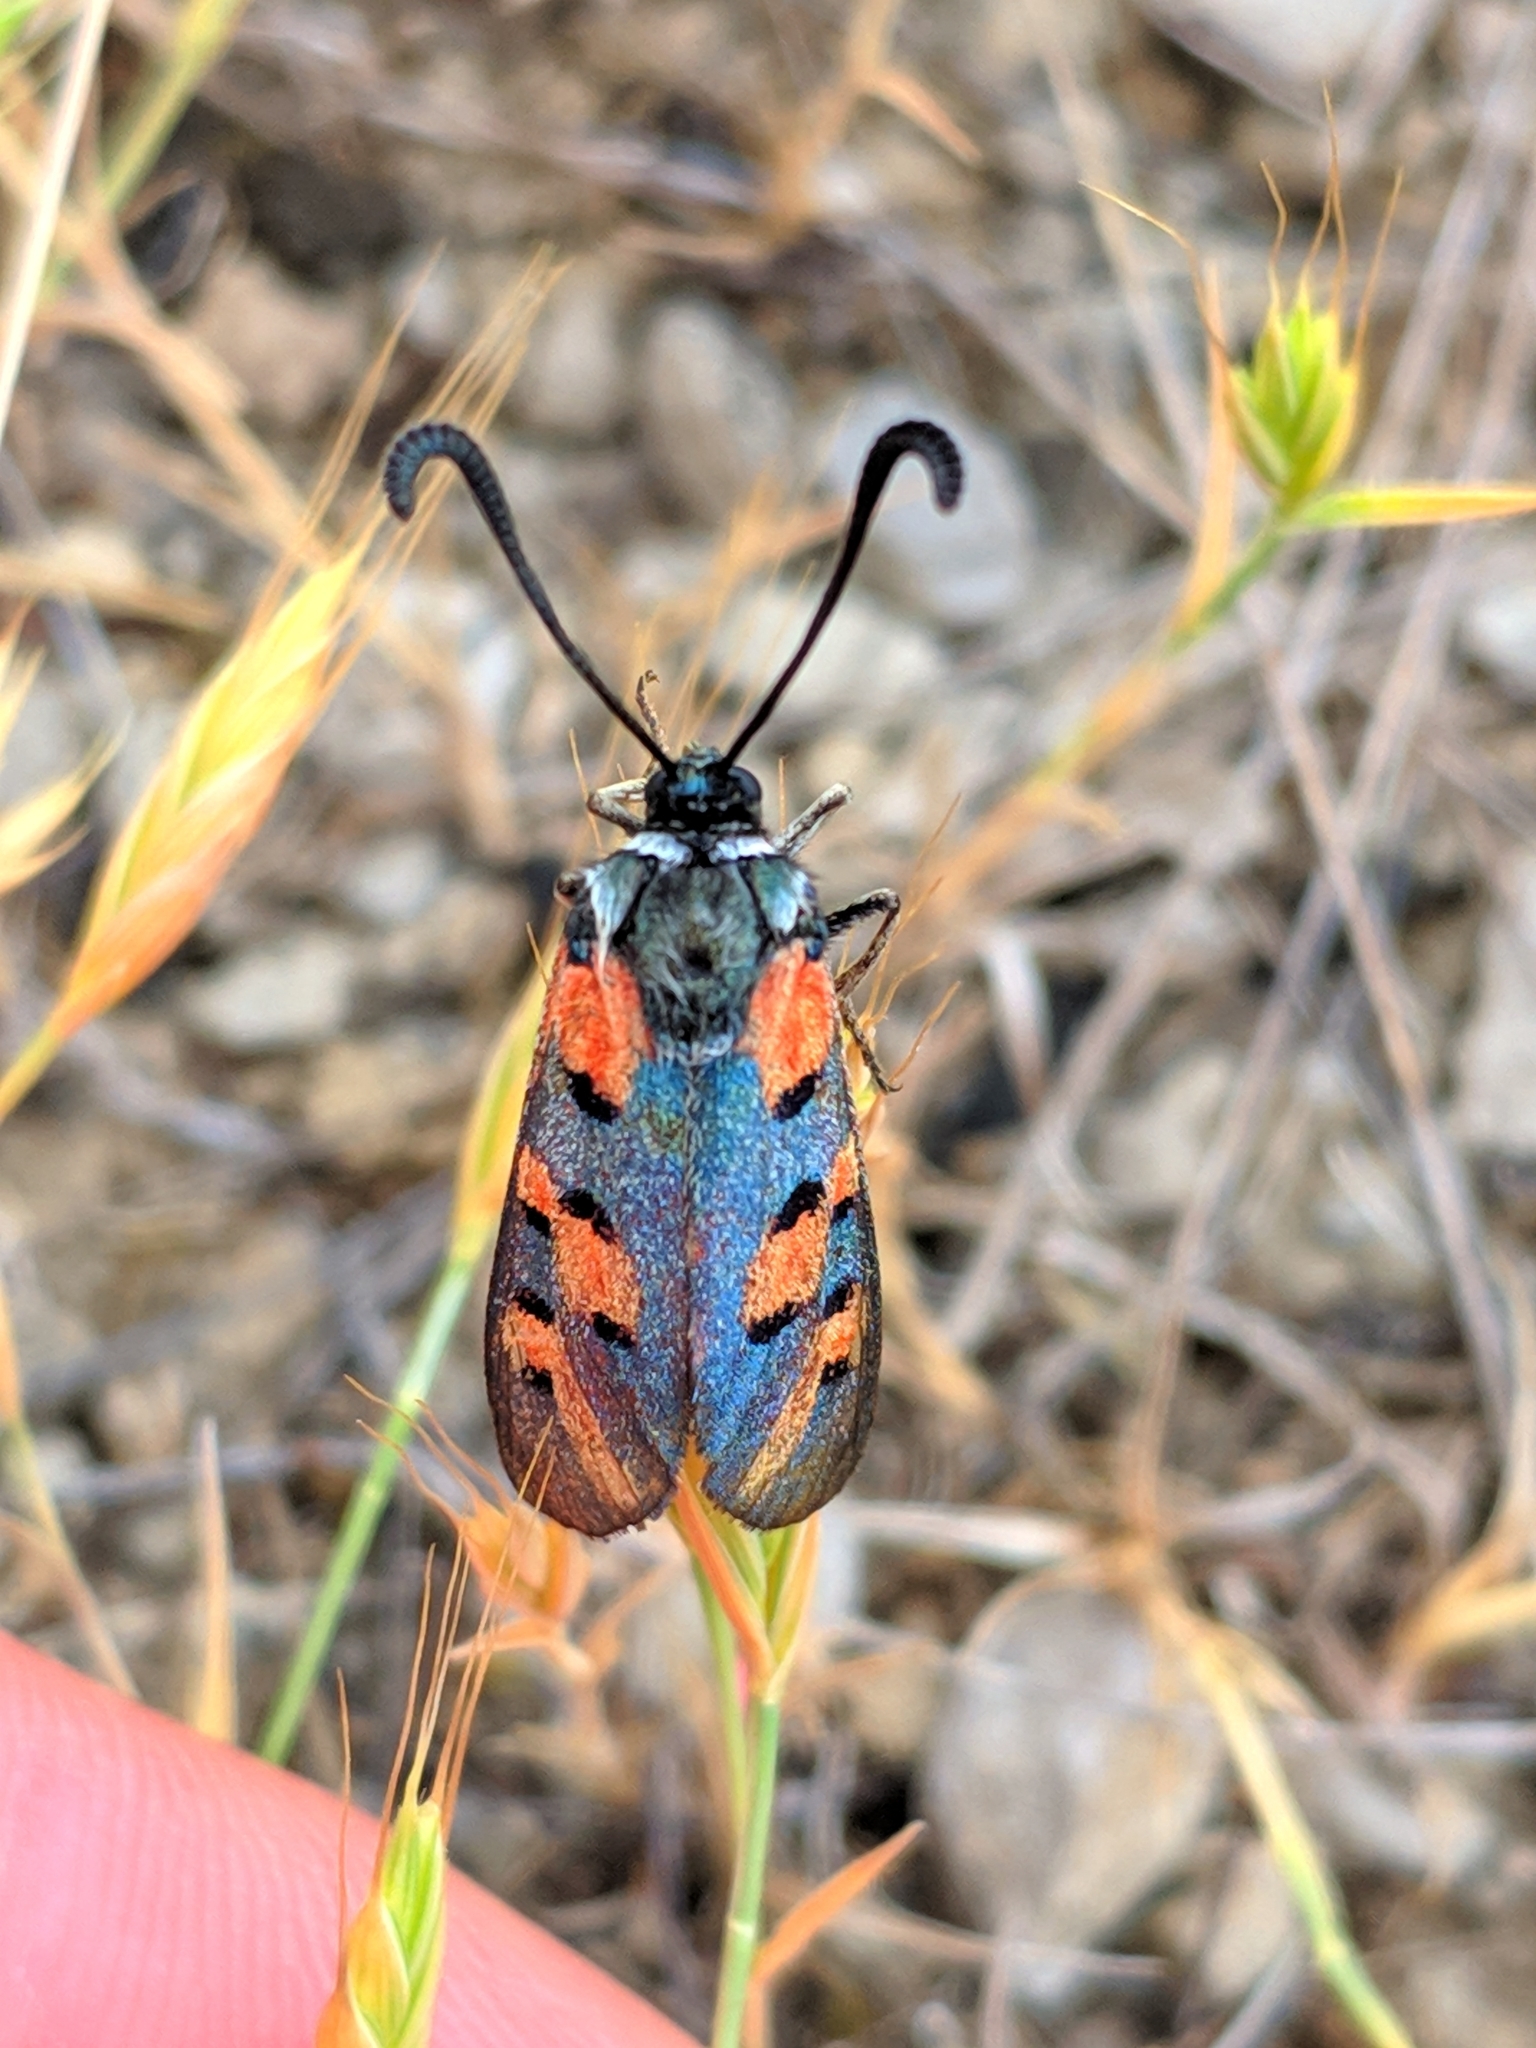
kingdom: Animalia
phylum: Arthropoda
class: Insecta
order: Lepidoptera
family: Zygaenidae
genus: Zygaena
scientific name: Zygaena rhadamanthus
